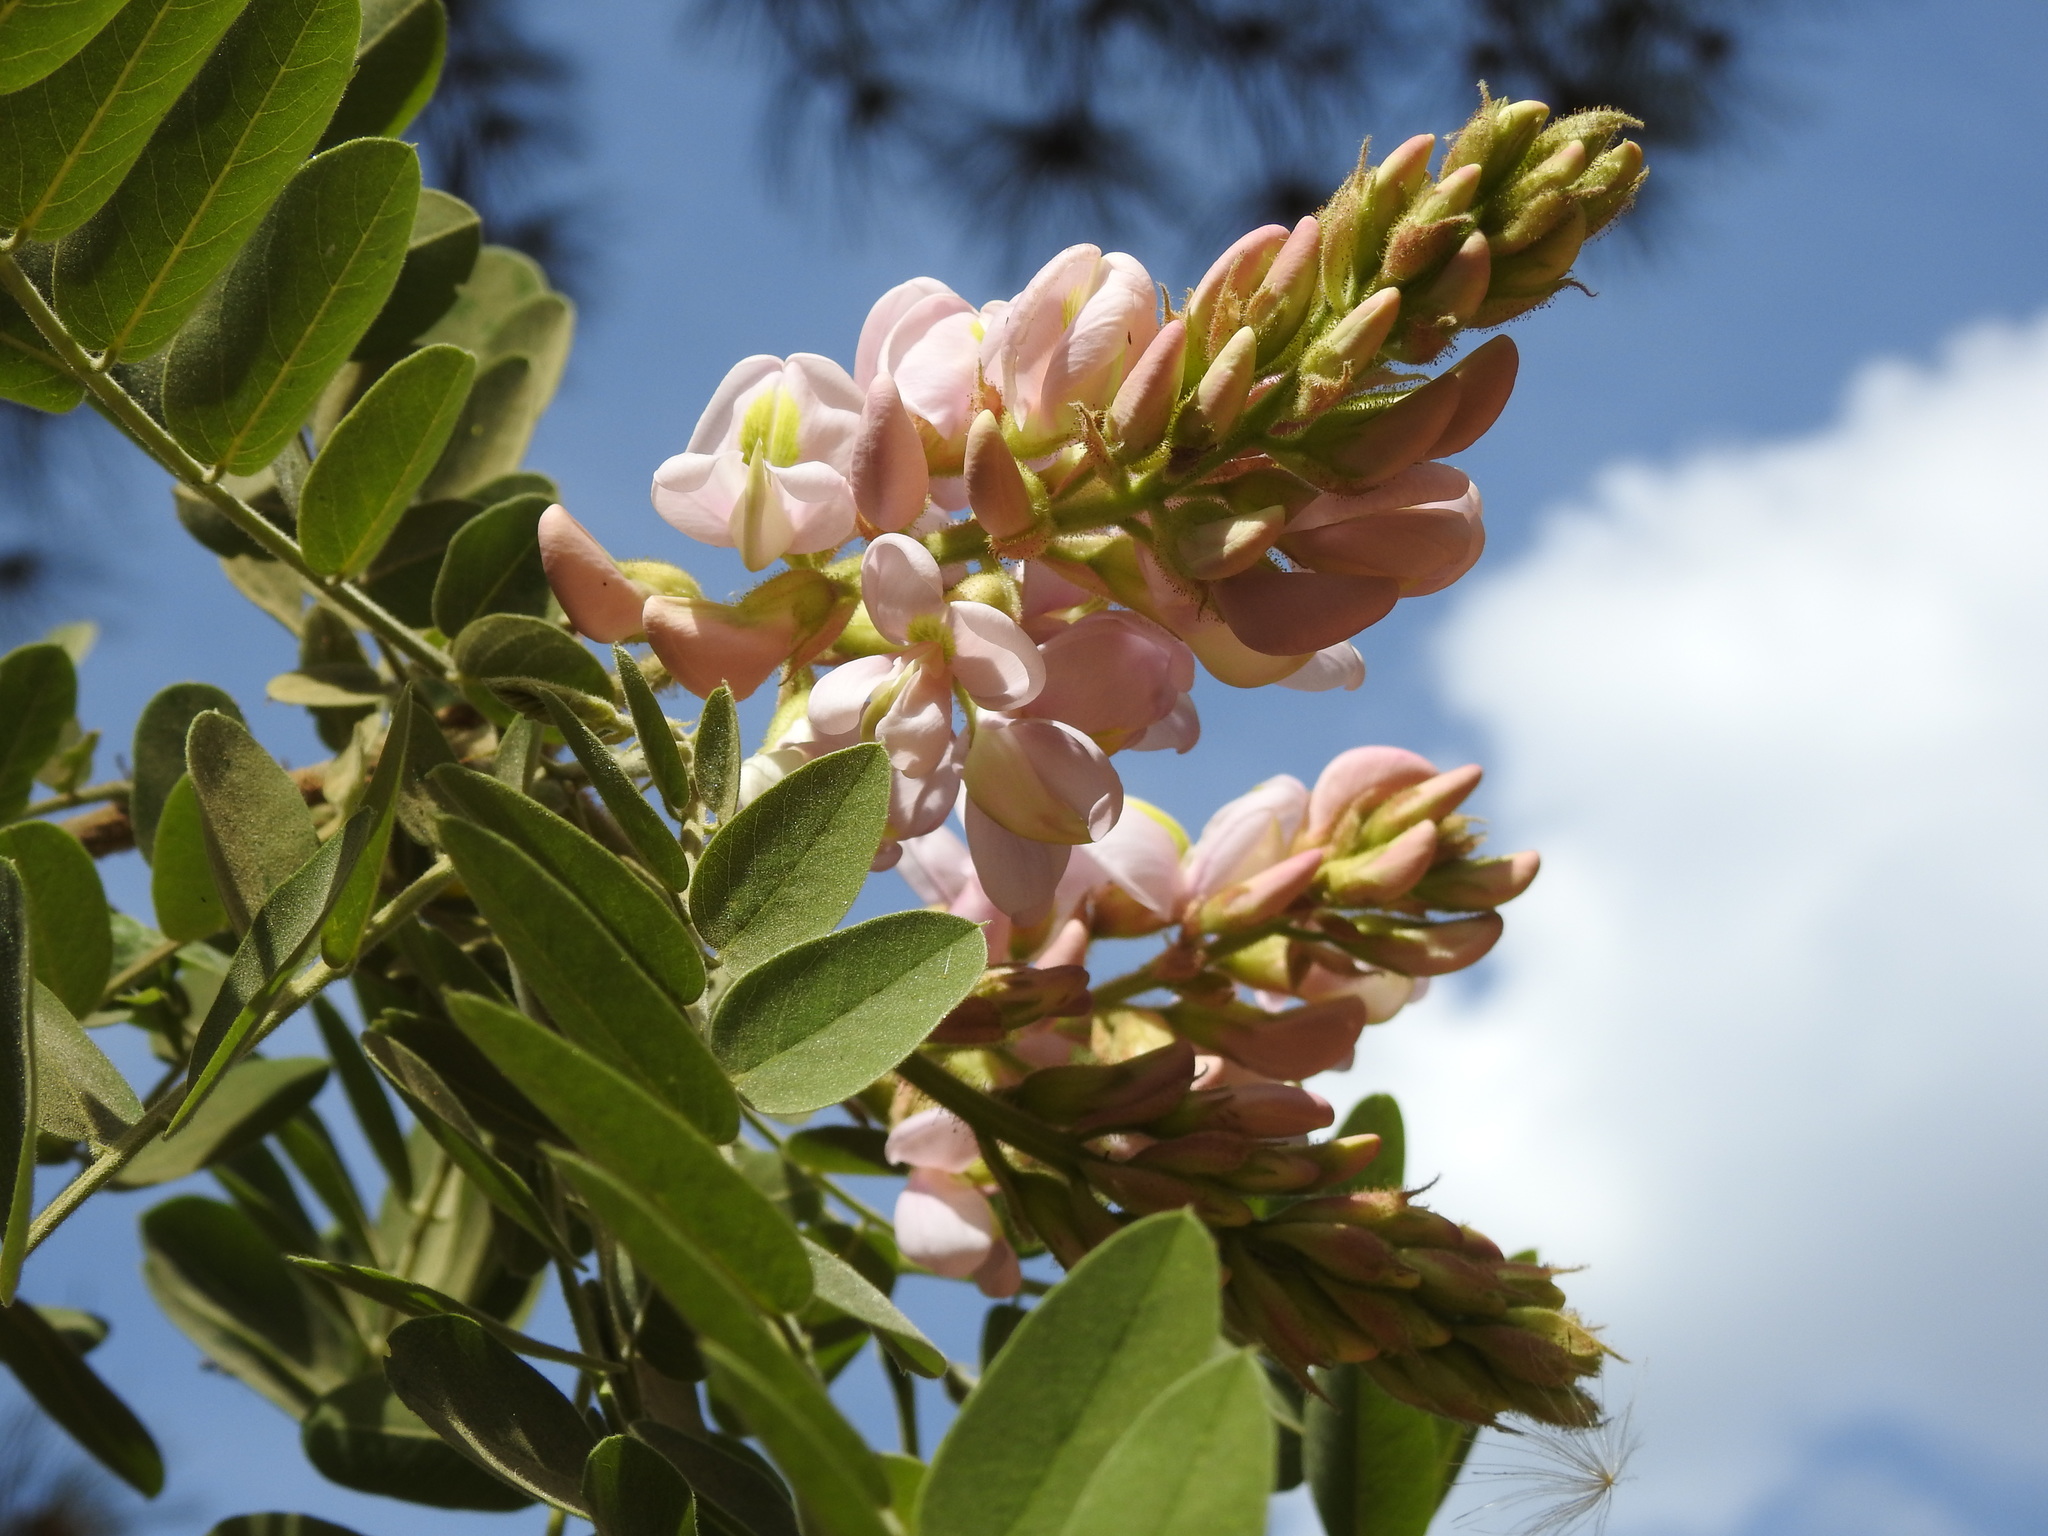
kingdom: Plantae
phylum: Tracheophyta
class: Magnoliopsida
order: Fabales
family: Fabaceae
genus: Robinia
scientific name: Robinia neomexicana
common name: New mexico locust
